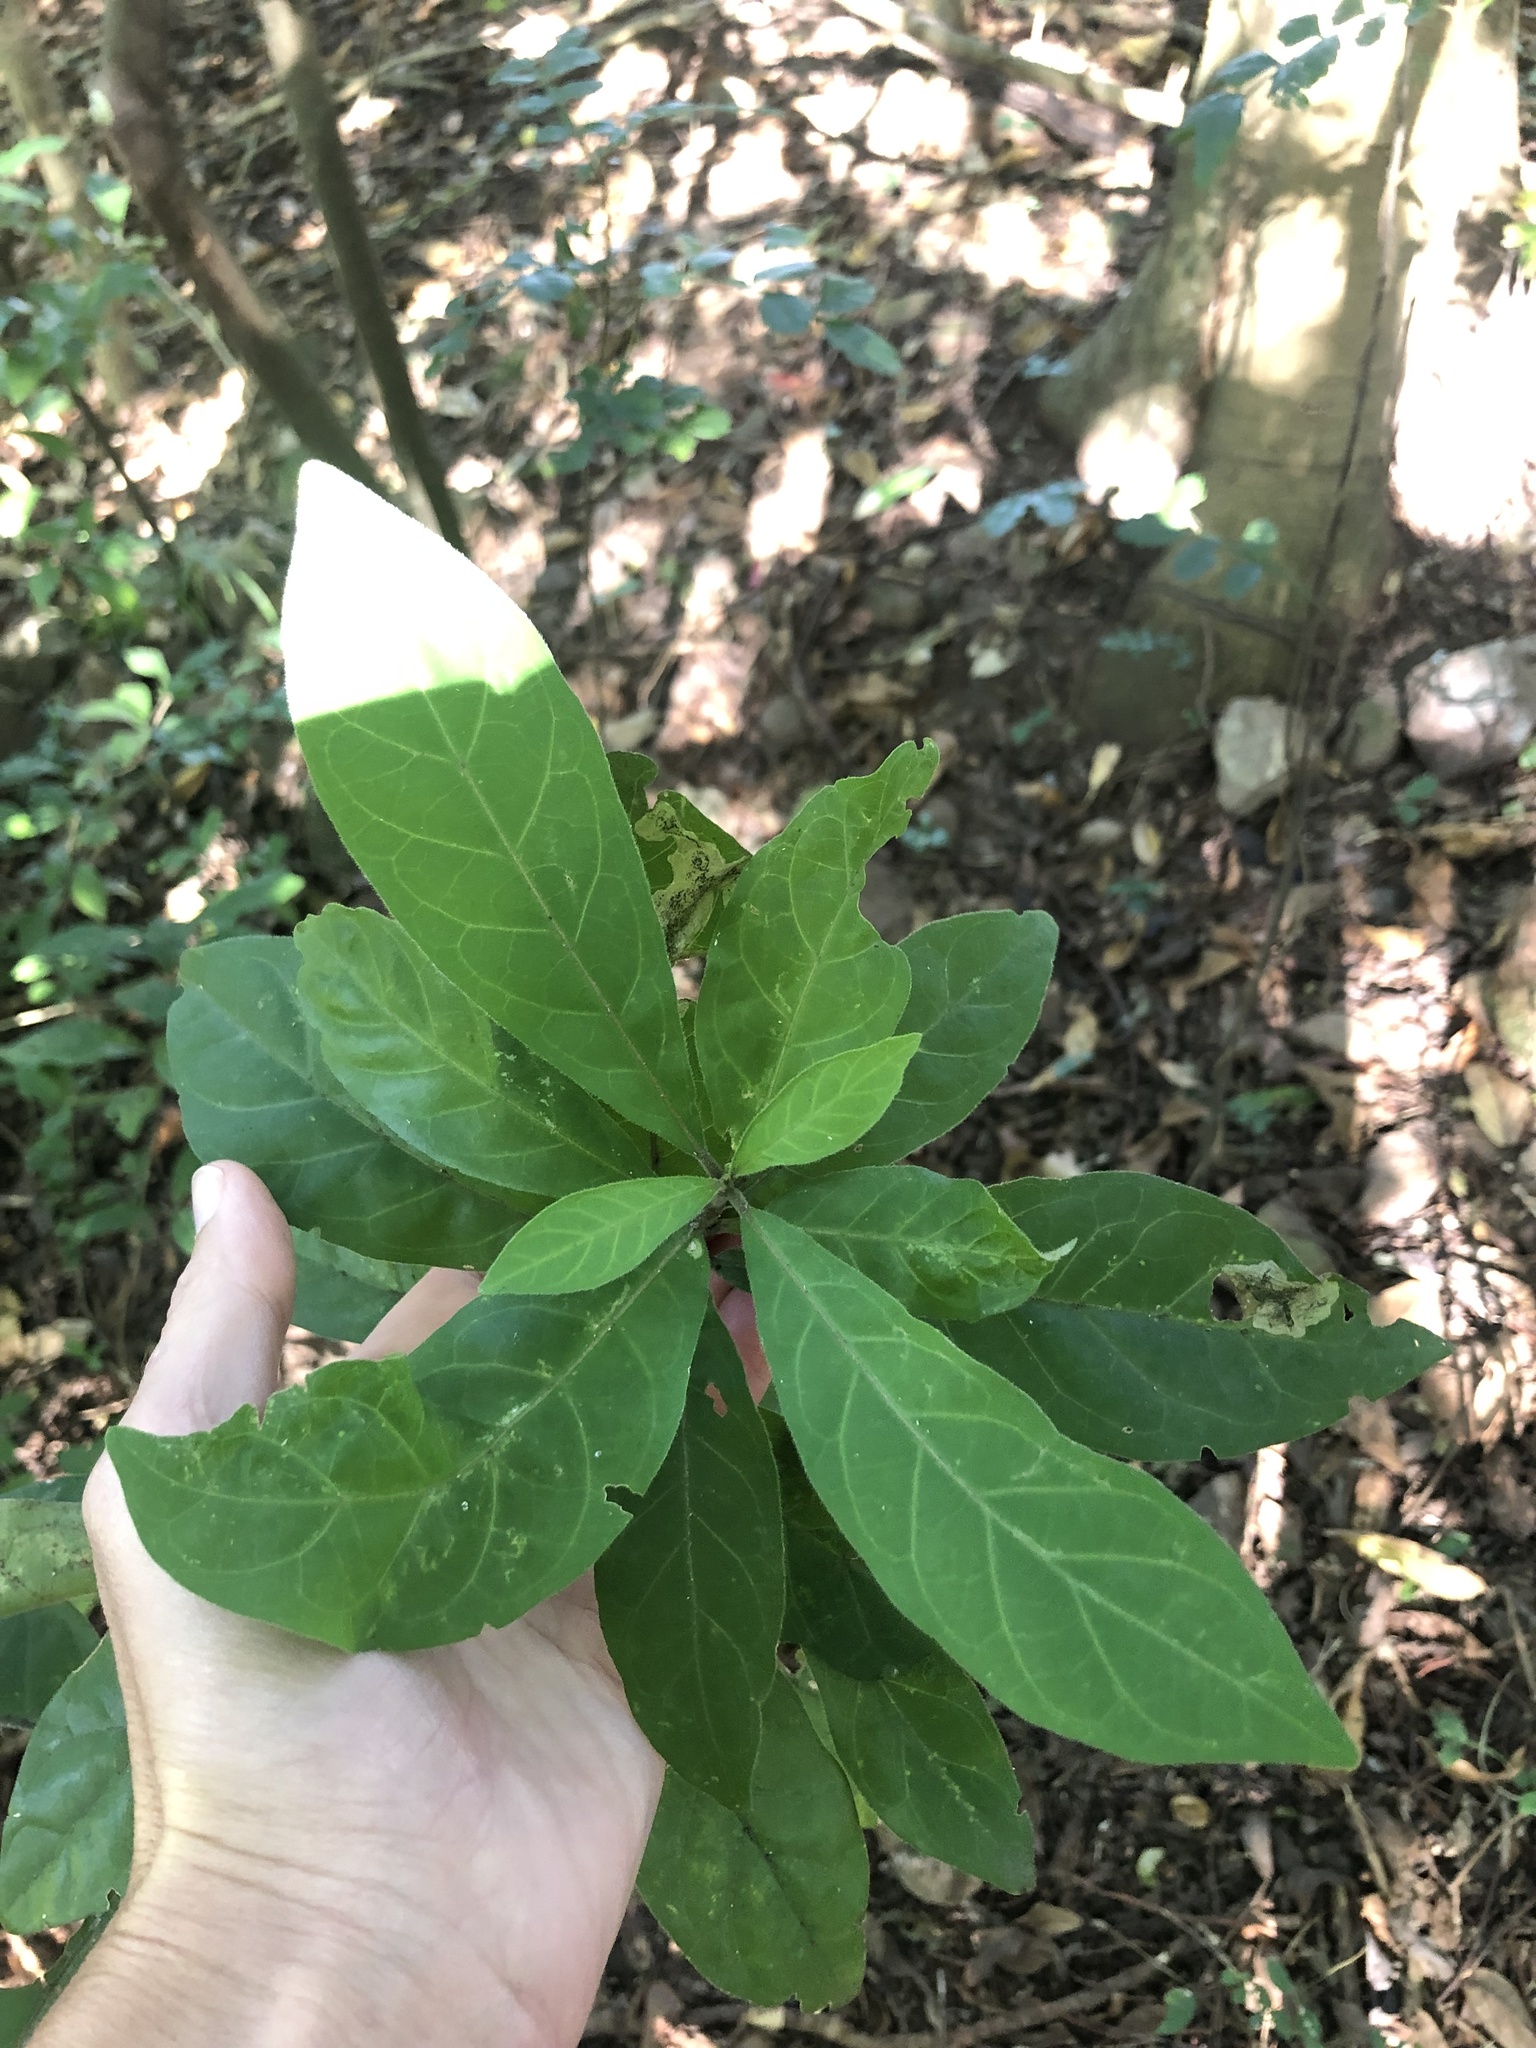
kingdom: Plantae
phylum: Tracheophyta
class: Magnoliopsida
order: Gentianales
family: Rubiaceae
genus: Rothmannia
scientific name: Rothmannia globosa
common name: September bells
